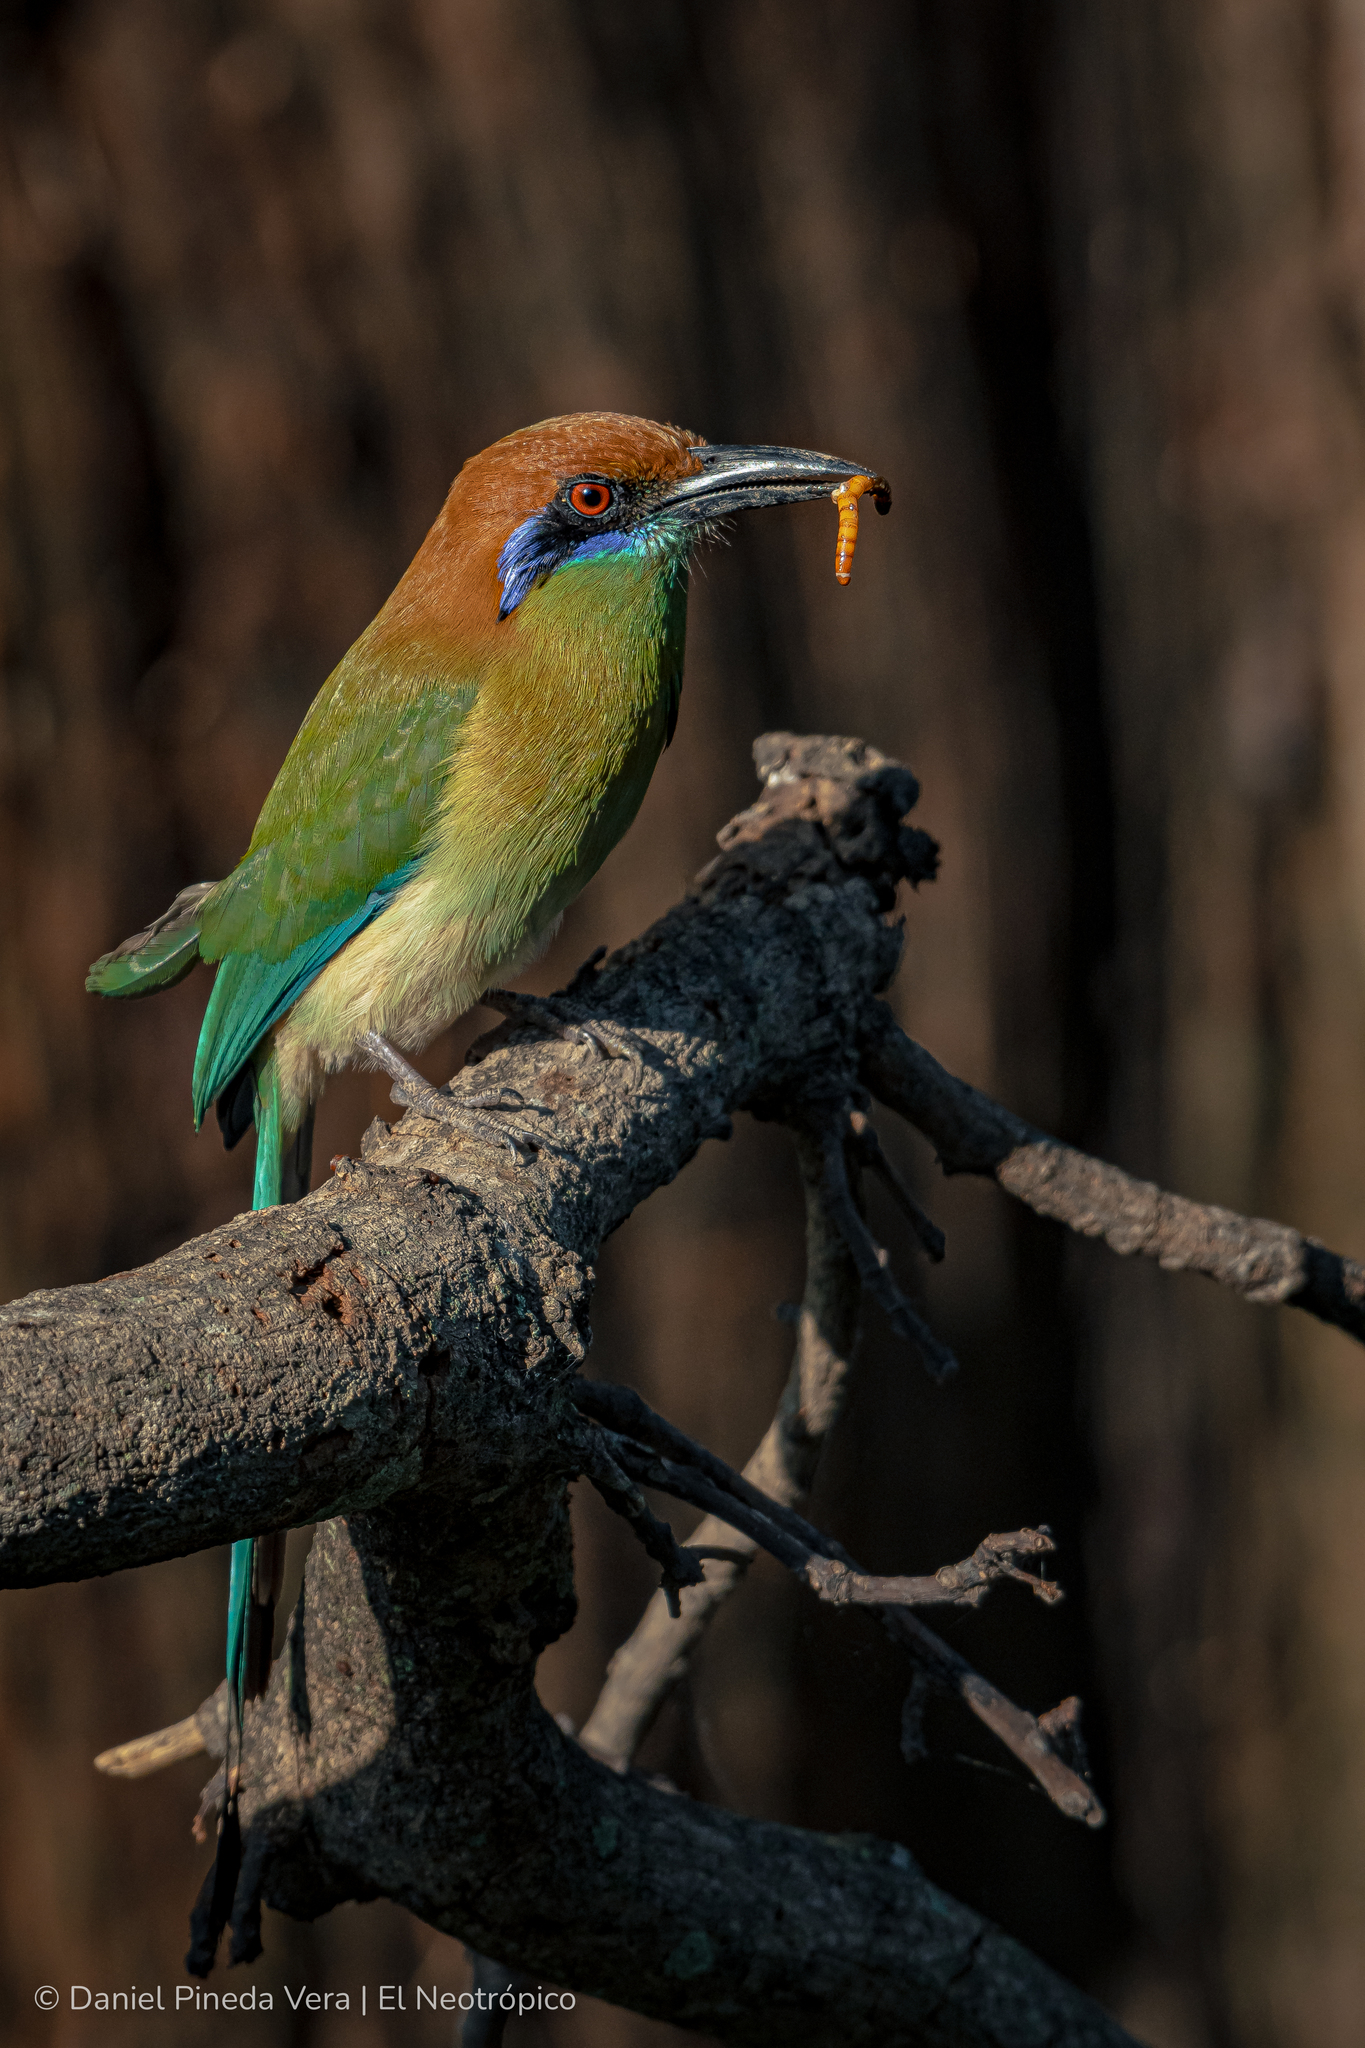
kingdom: Animalia
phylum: Chordata
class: Aves
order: Coraciiformes
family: Momotidae
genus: Momotus
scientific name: Momotus mexicanus
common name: Russet-crowned motmot
